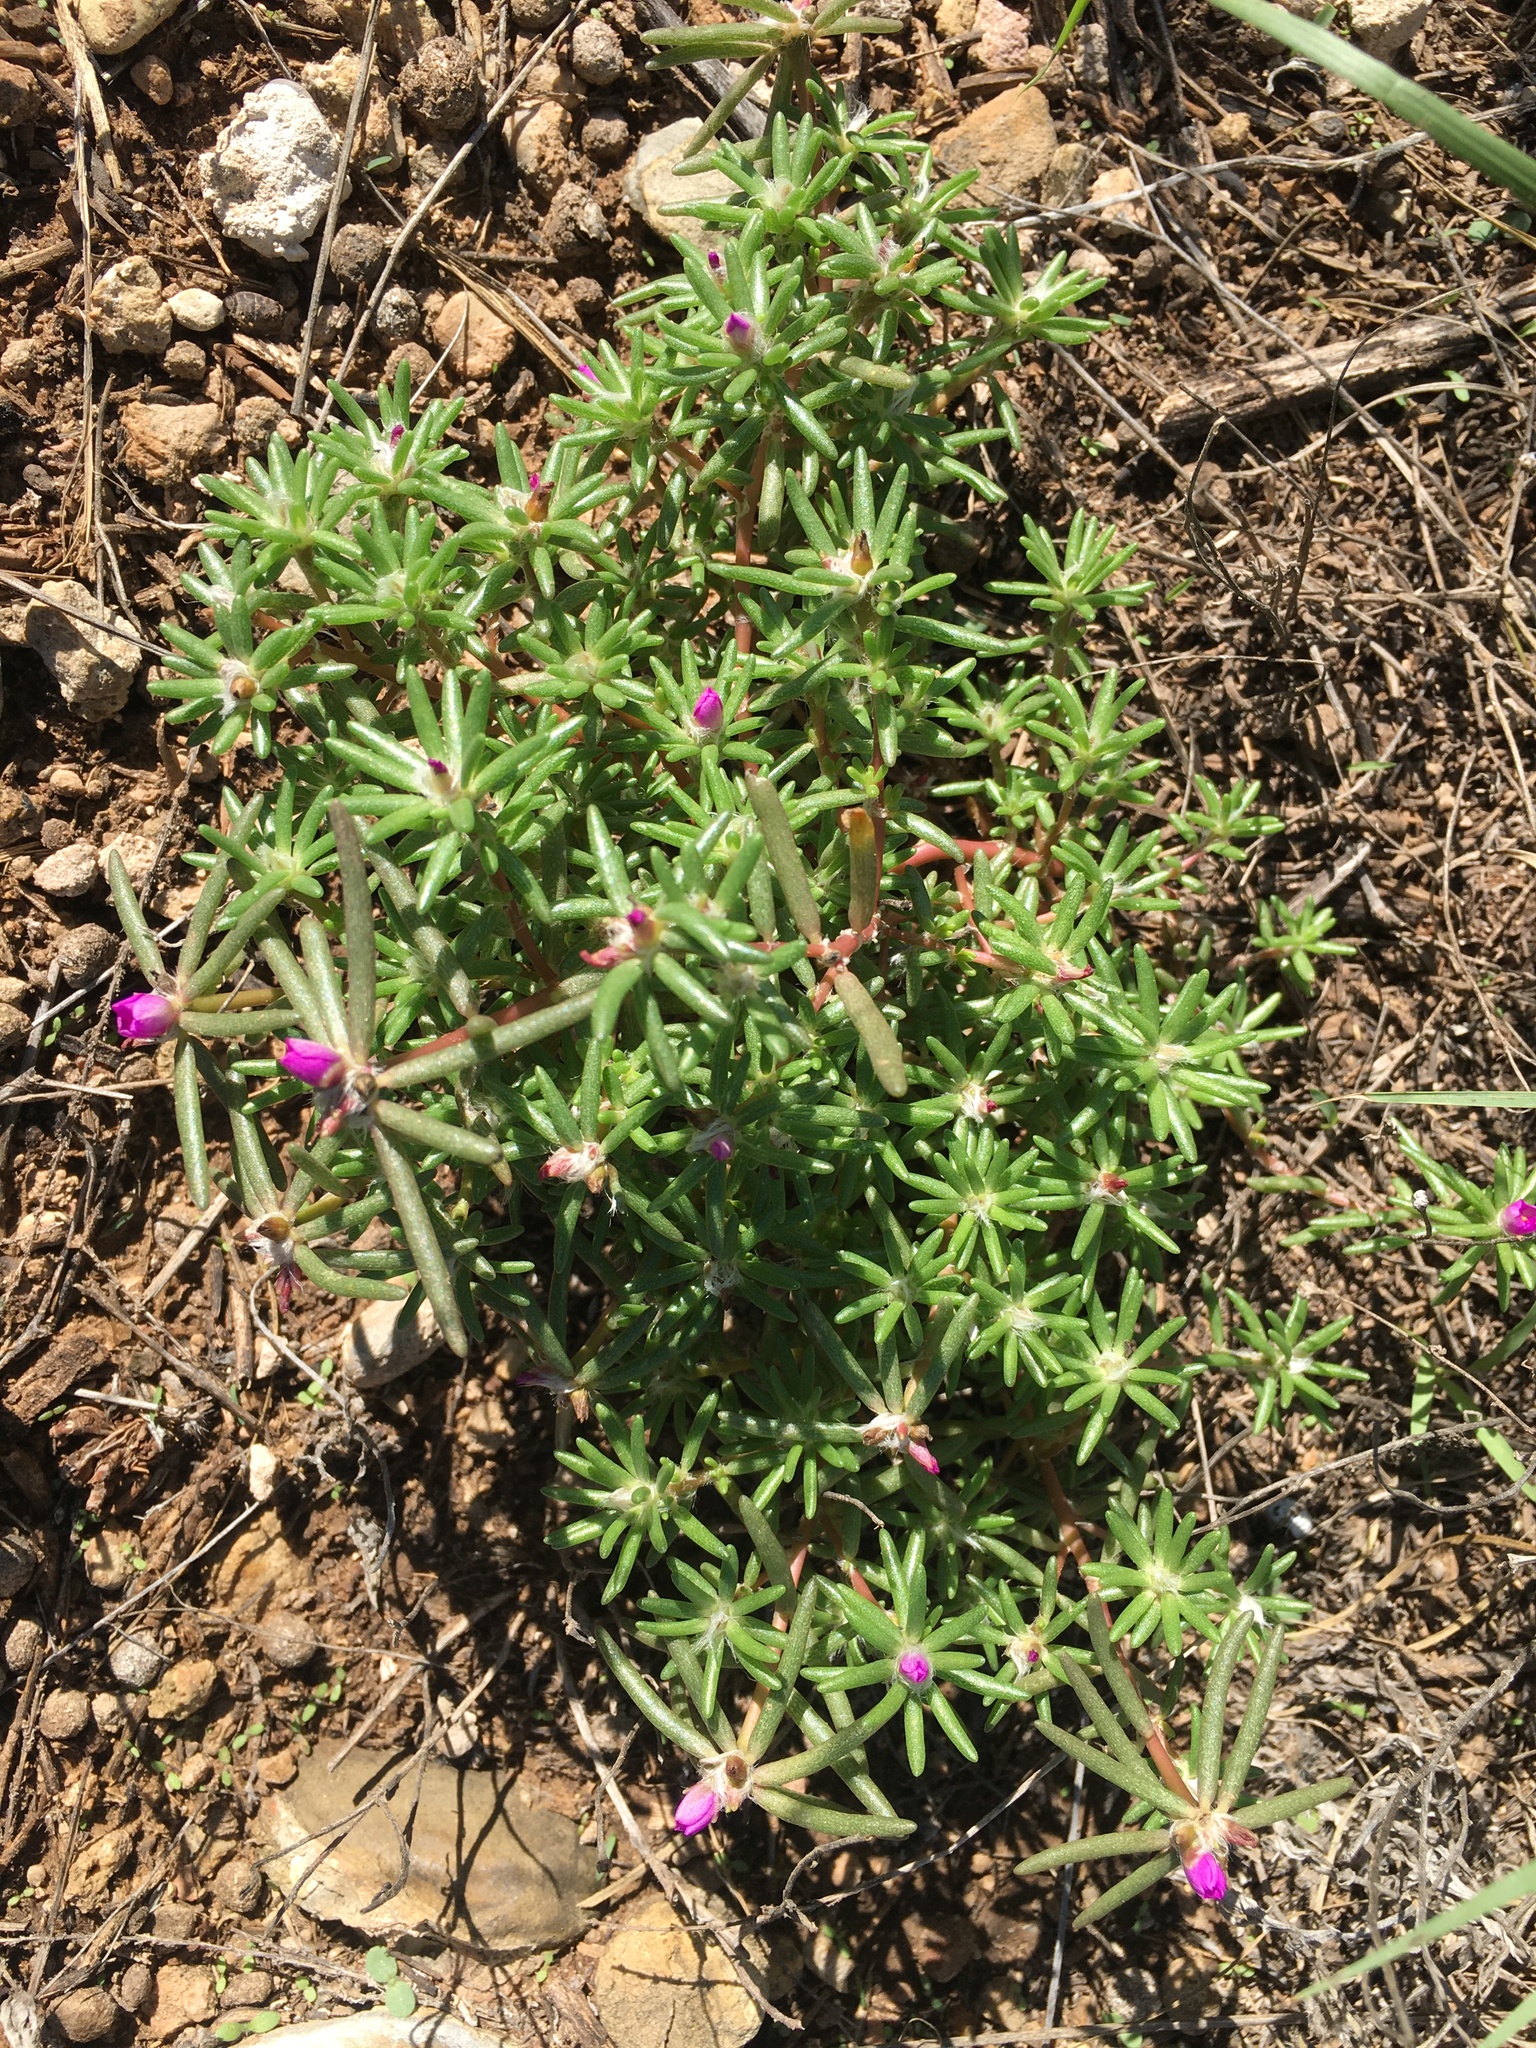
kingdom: Plantae
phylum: Tracheophyta
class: Magnoliopsida
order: Caryophyllales
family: Portulacaceae
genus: Portulaca
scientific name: Portulaca pilosa
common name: Kiss me quick
